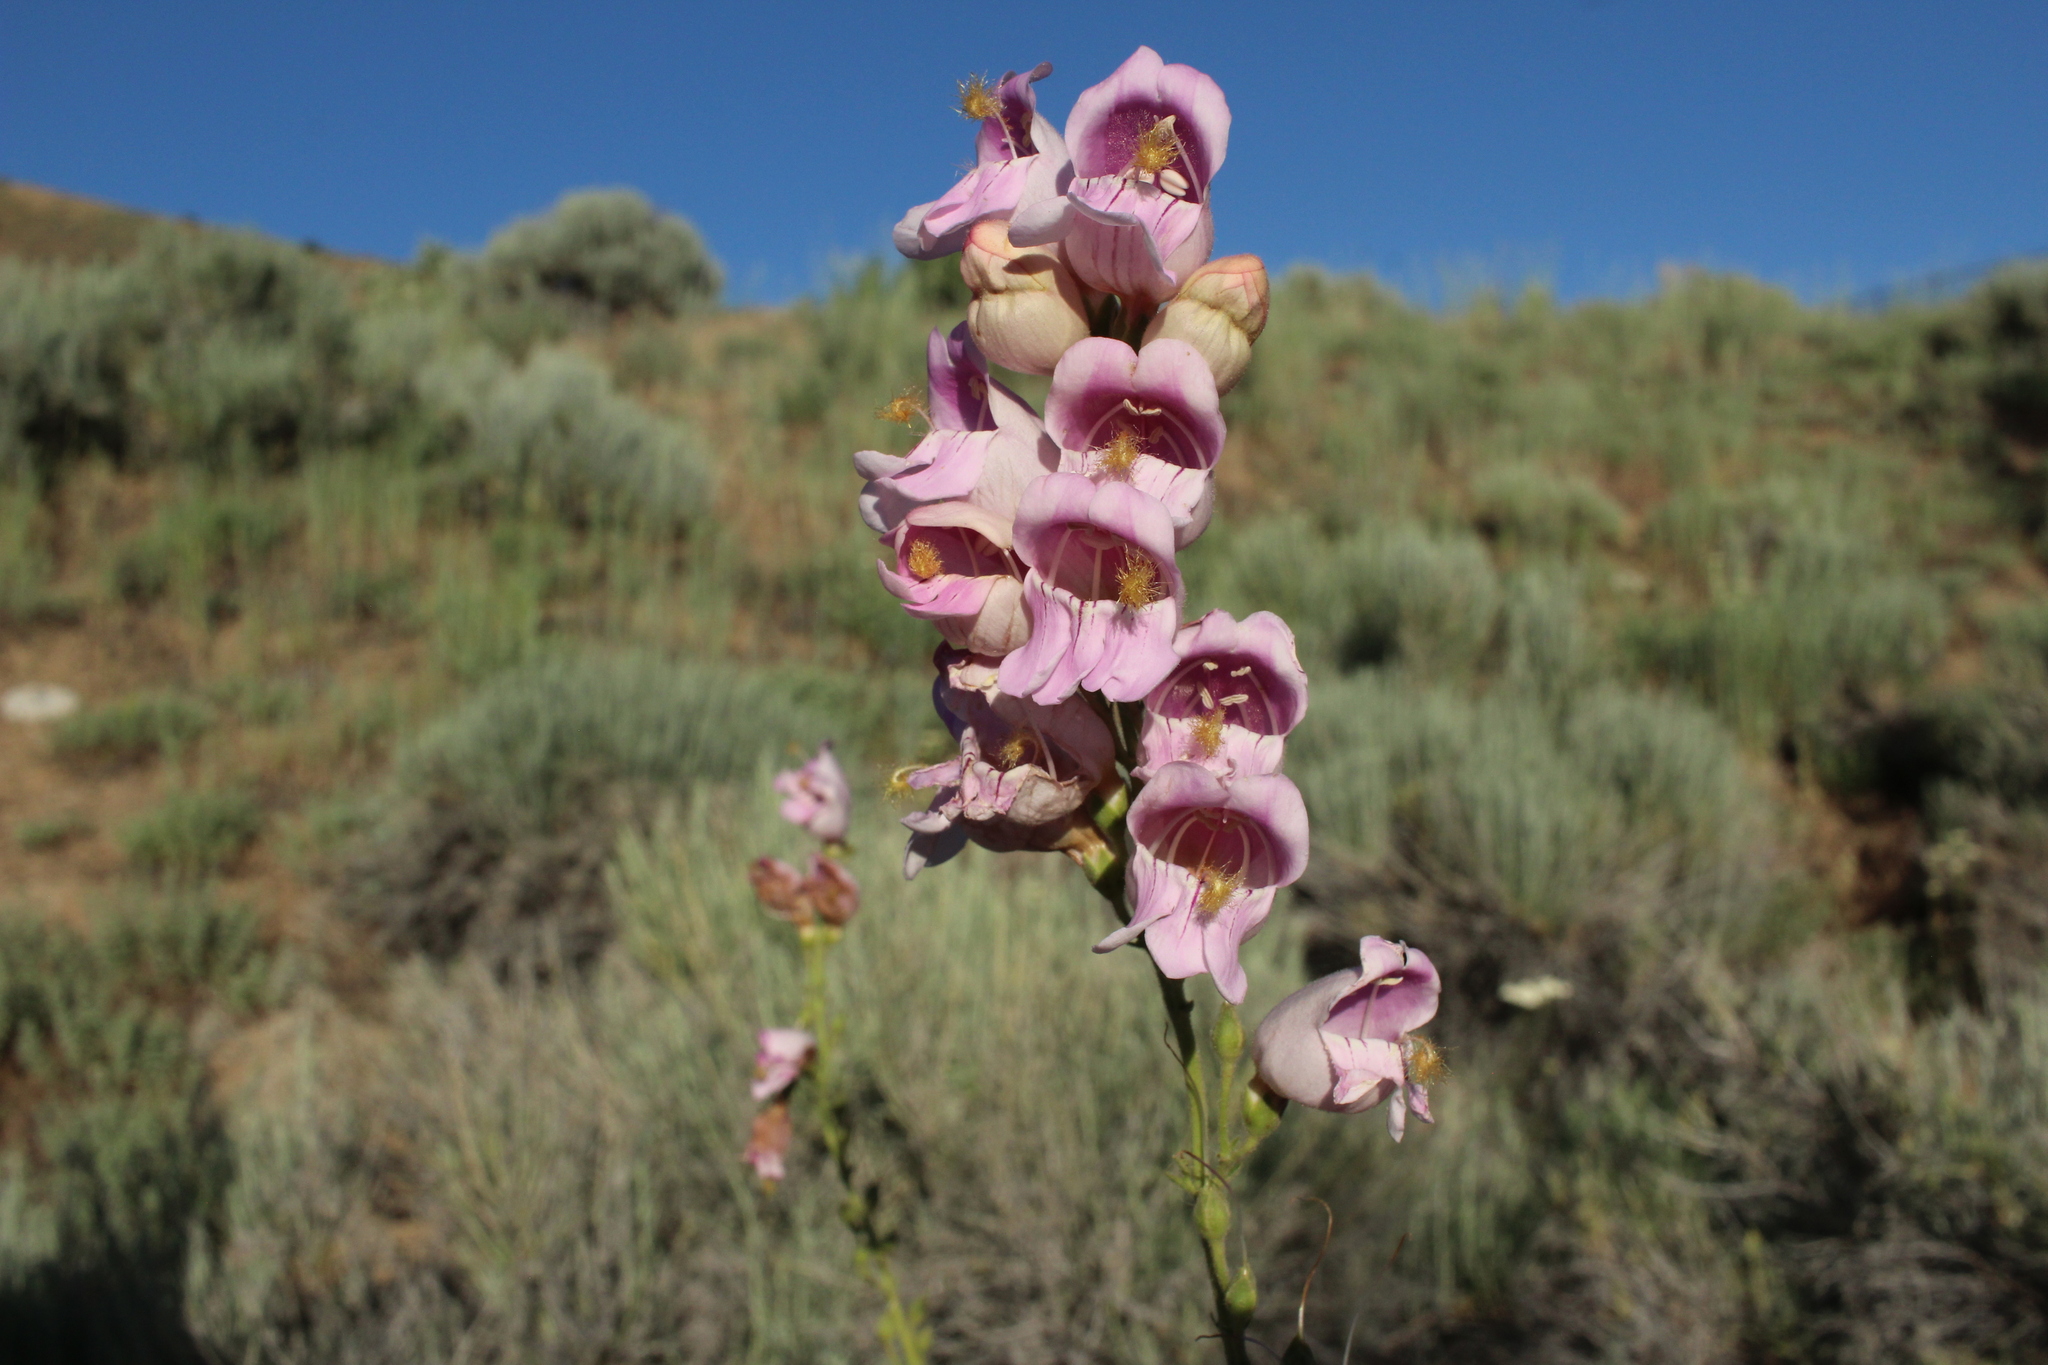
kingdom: Plantae
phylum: Tracheophyta
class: Magnoliopsida
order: Lamiales
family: Plantaginaceae
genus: Penstemon
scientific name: Penstemon palmeri
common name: Palmer penstemon
